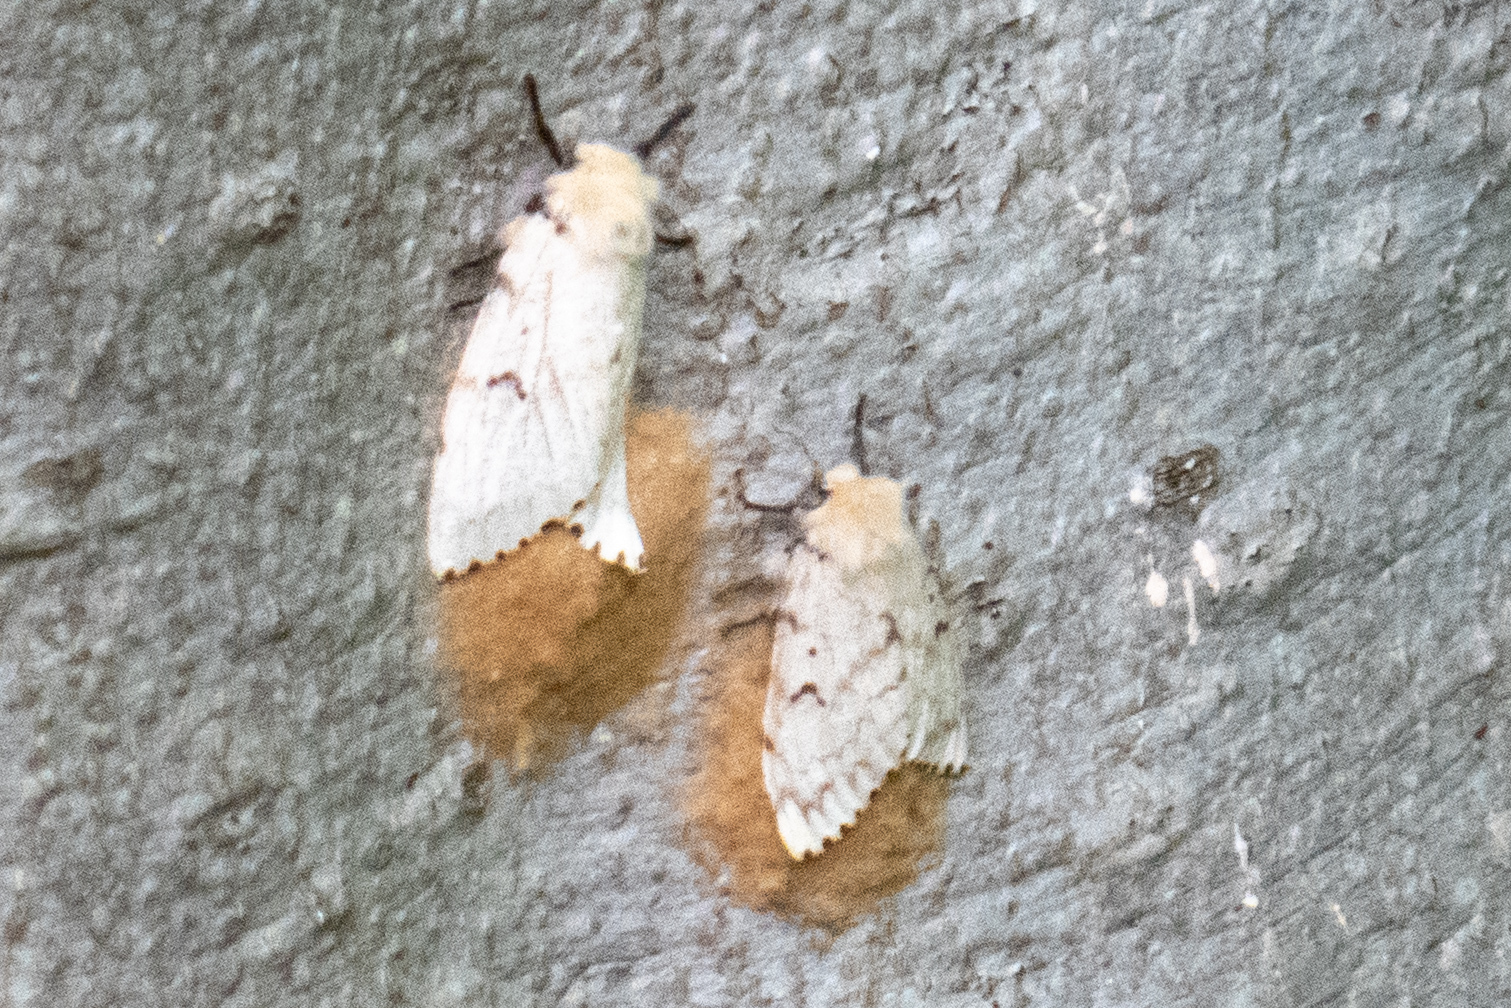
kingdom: Animalia
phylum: Arthropoda
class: Insecta
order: Lepidoptera
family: Erebidae
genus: Lymantria
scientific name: Lymantria dispar
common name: Gypsy moth
